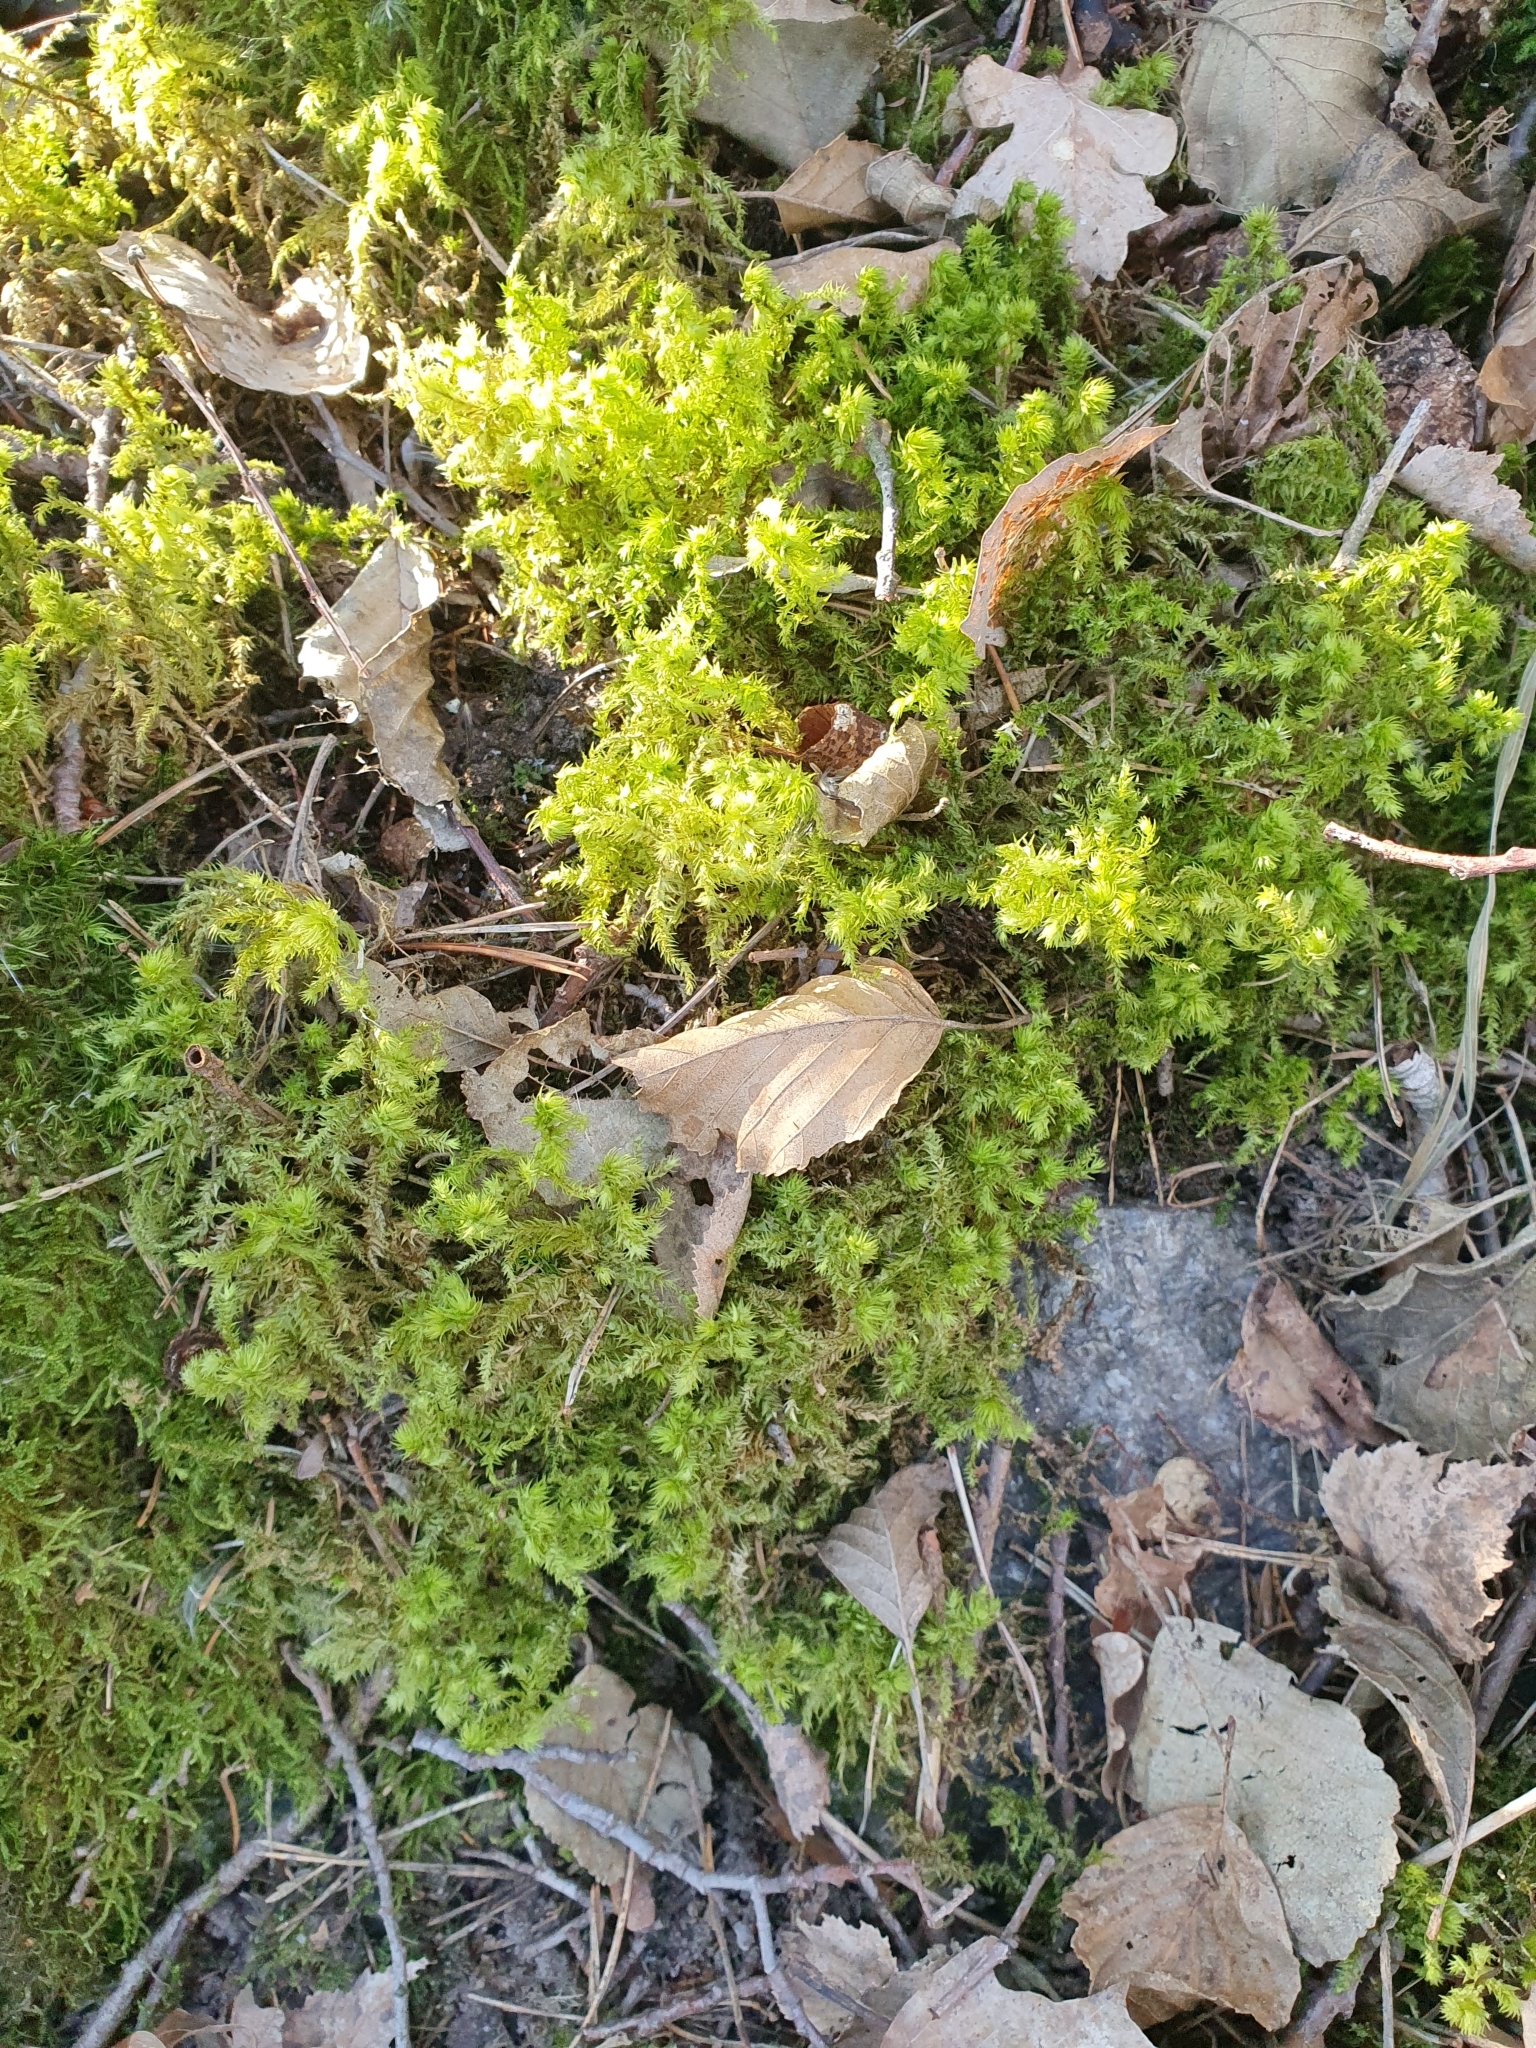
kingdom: Plantae
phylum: Bryophyta
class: Bryopsida
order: Hypnales
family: Hylocomiaceae
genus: Hylocomiadelphus
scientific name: Hylocomiadelphus triquetrus
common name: Rough goose neck moss
